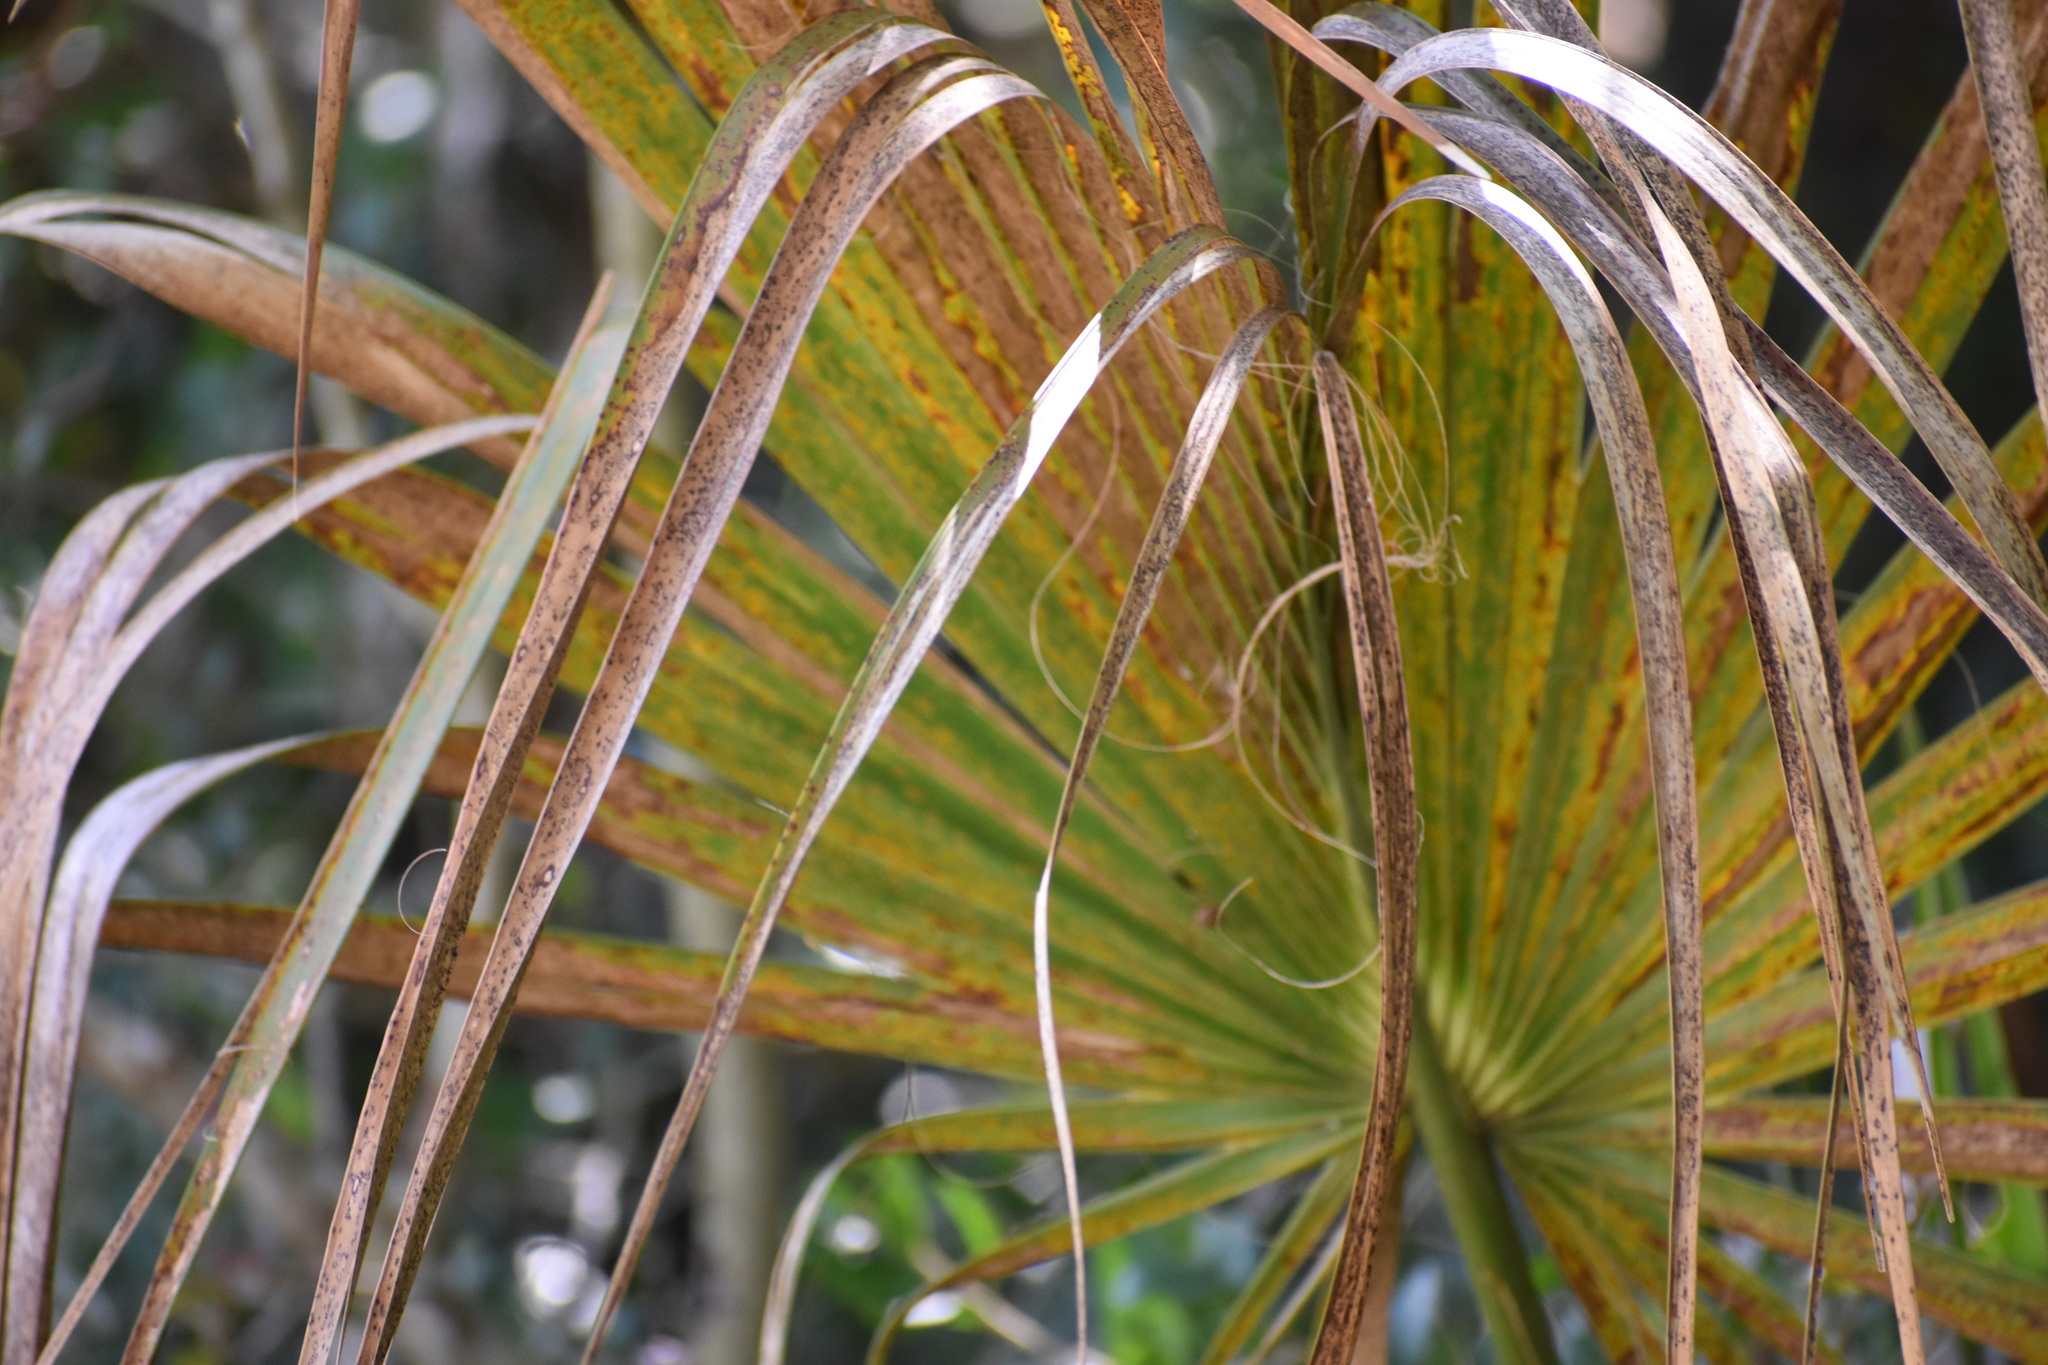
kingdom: Plantae
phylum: Tracheophyta
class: Liliopsida
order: Arecales
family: Arecaceae
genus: Sabal
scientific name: Sabal palmetto
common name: Blue palmetto
